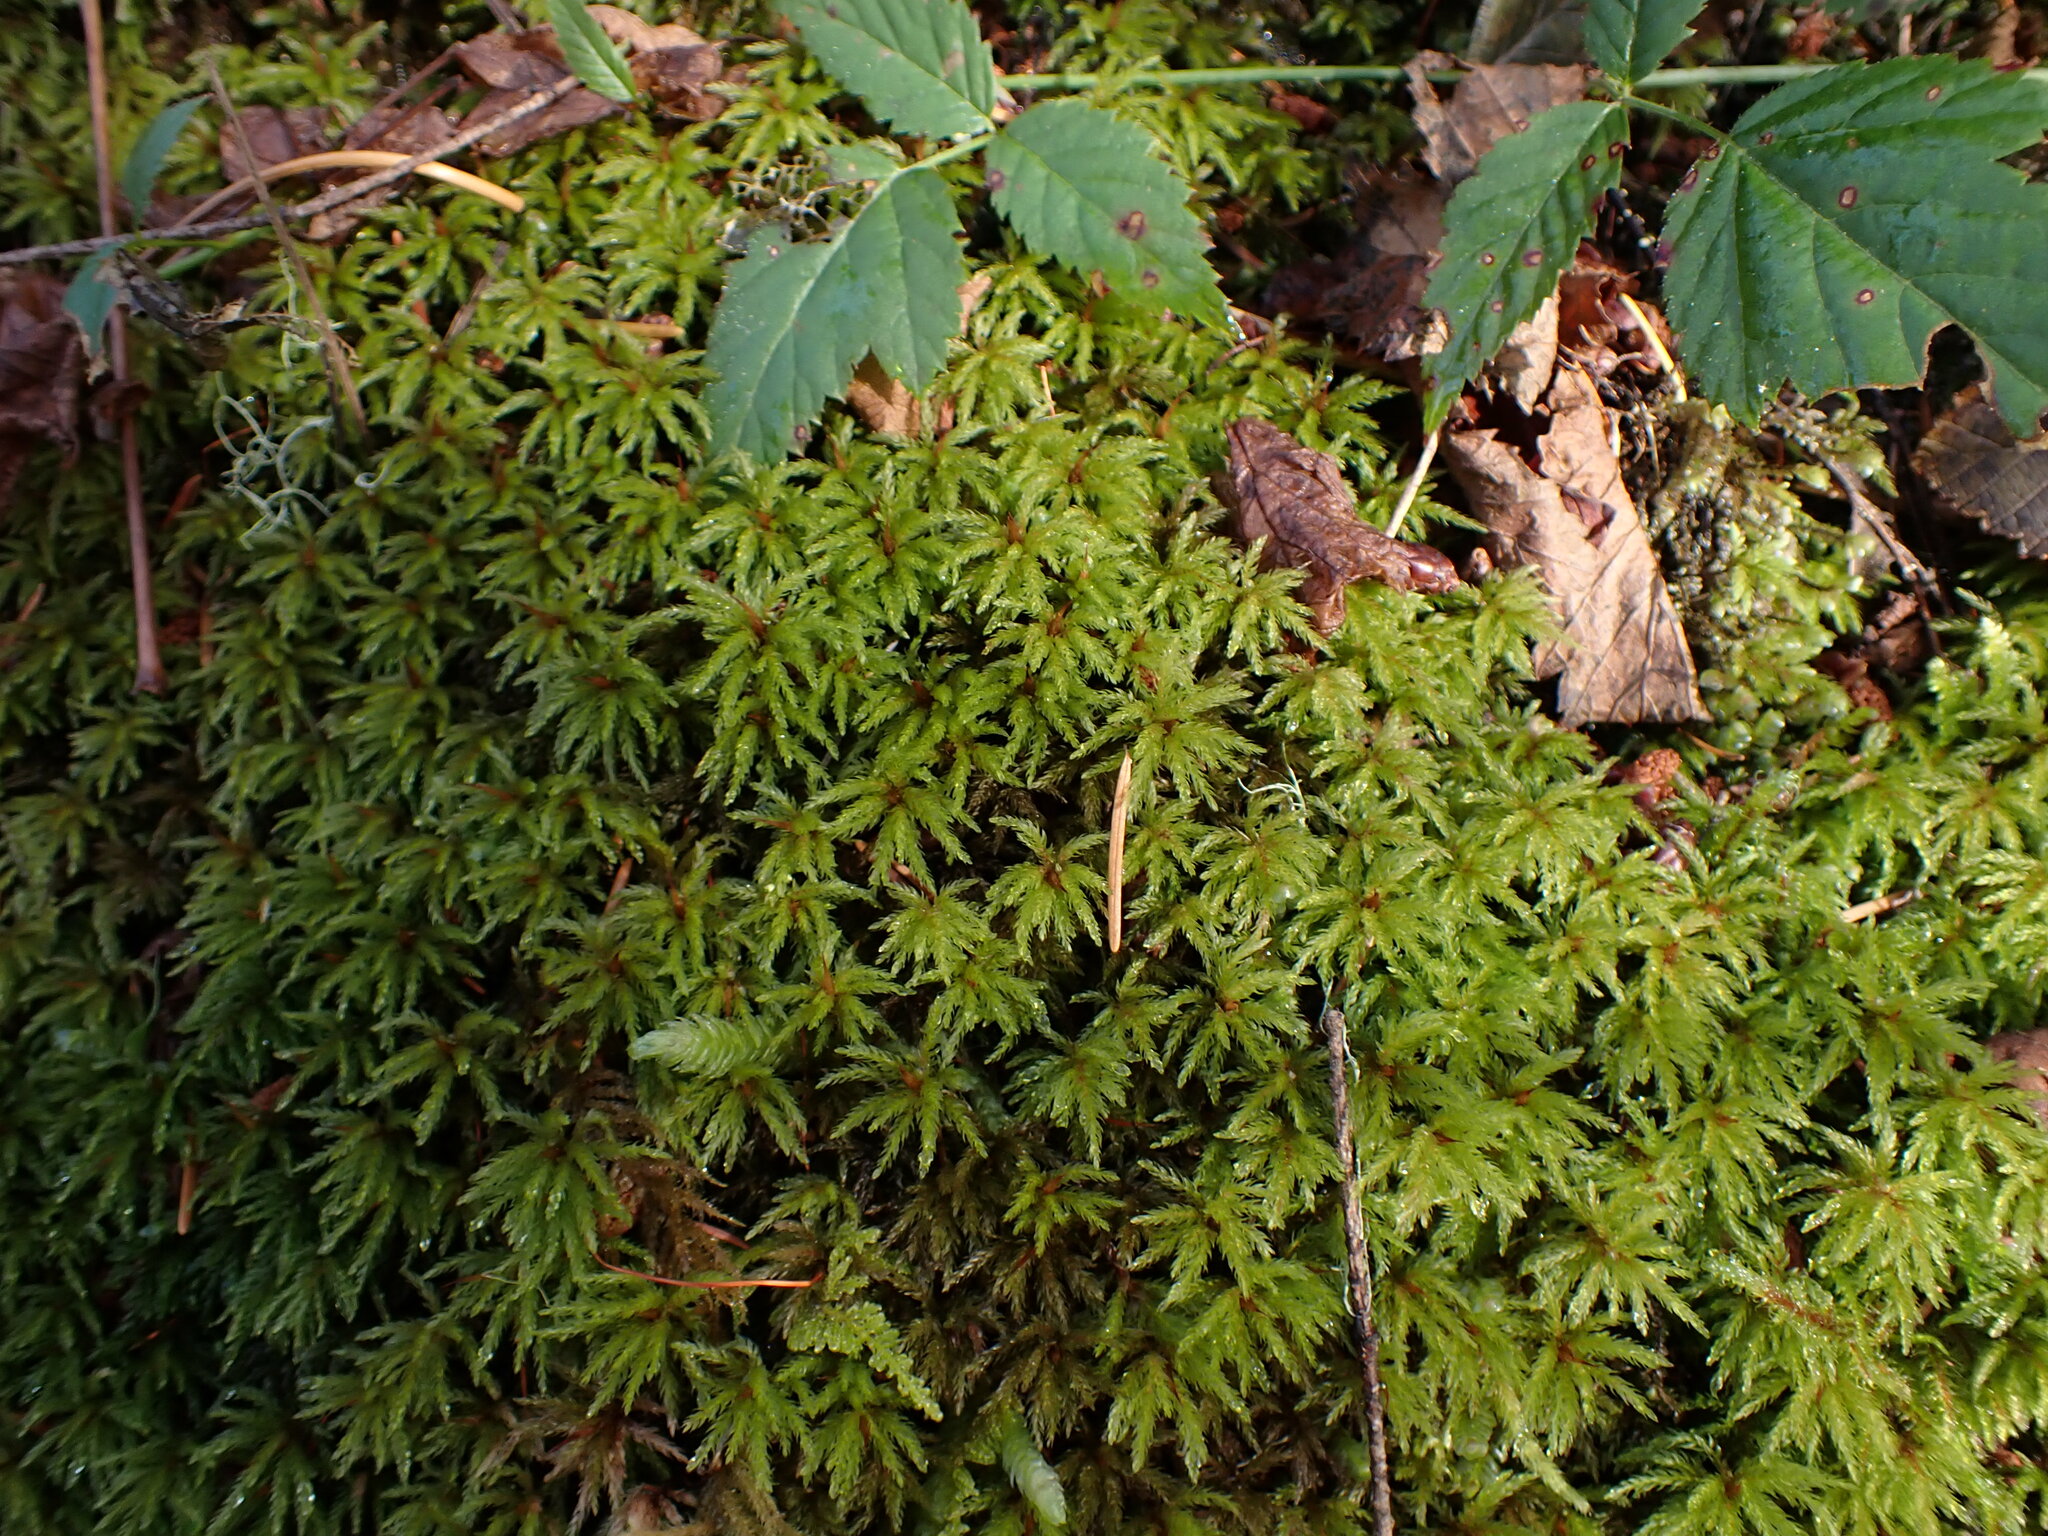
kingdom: Plantae
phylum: Bryophyta
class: Bryopsida
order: Bryales
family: Mniaceae
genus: Leucolepis
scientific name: Leucolepis acanthoneura
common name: Leucolepis umbrella moss
